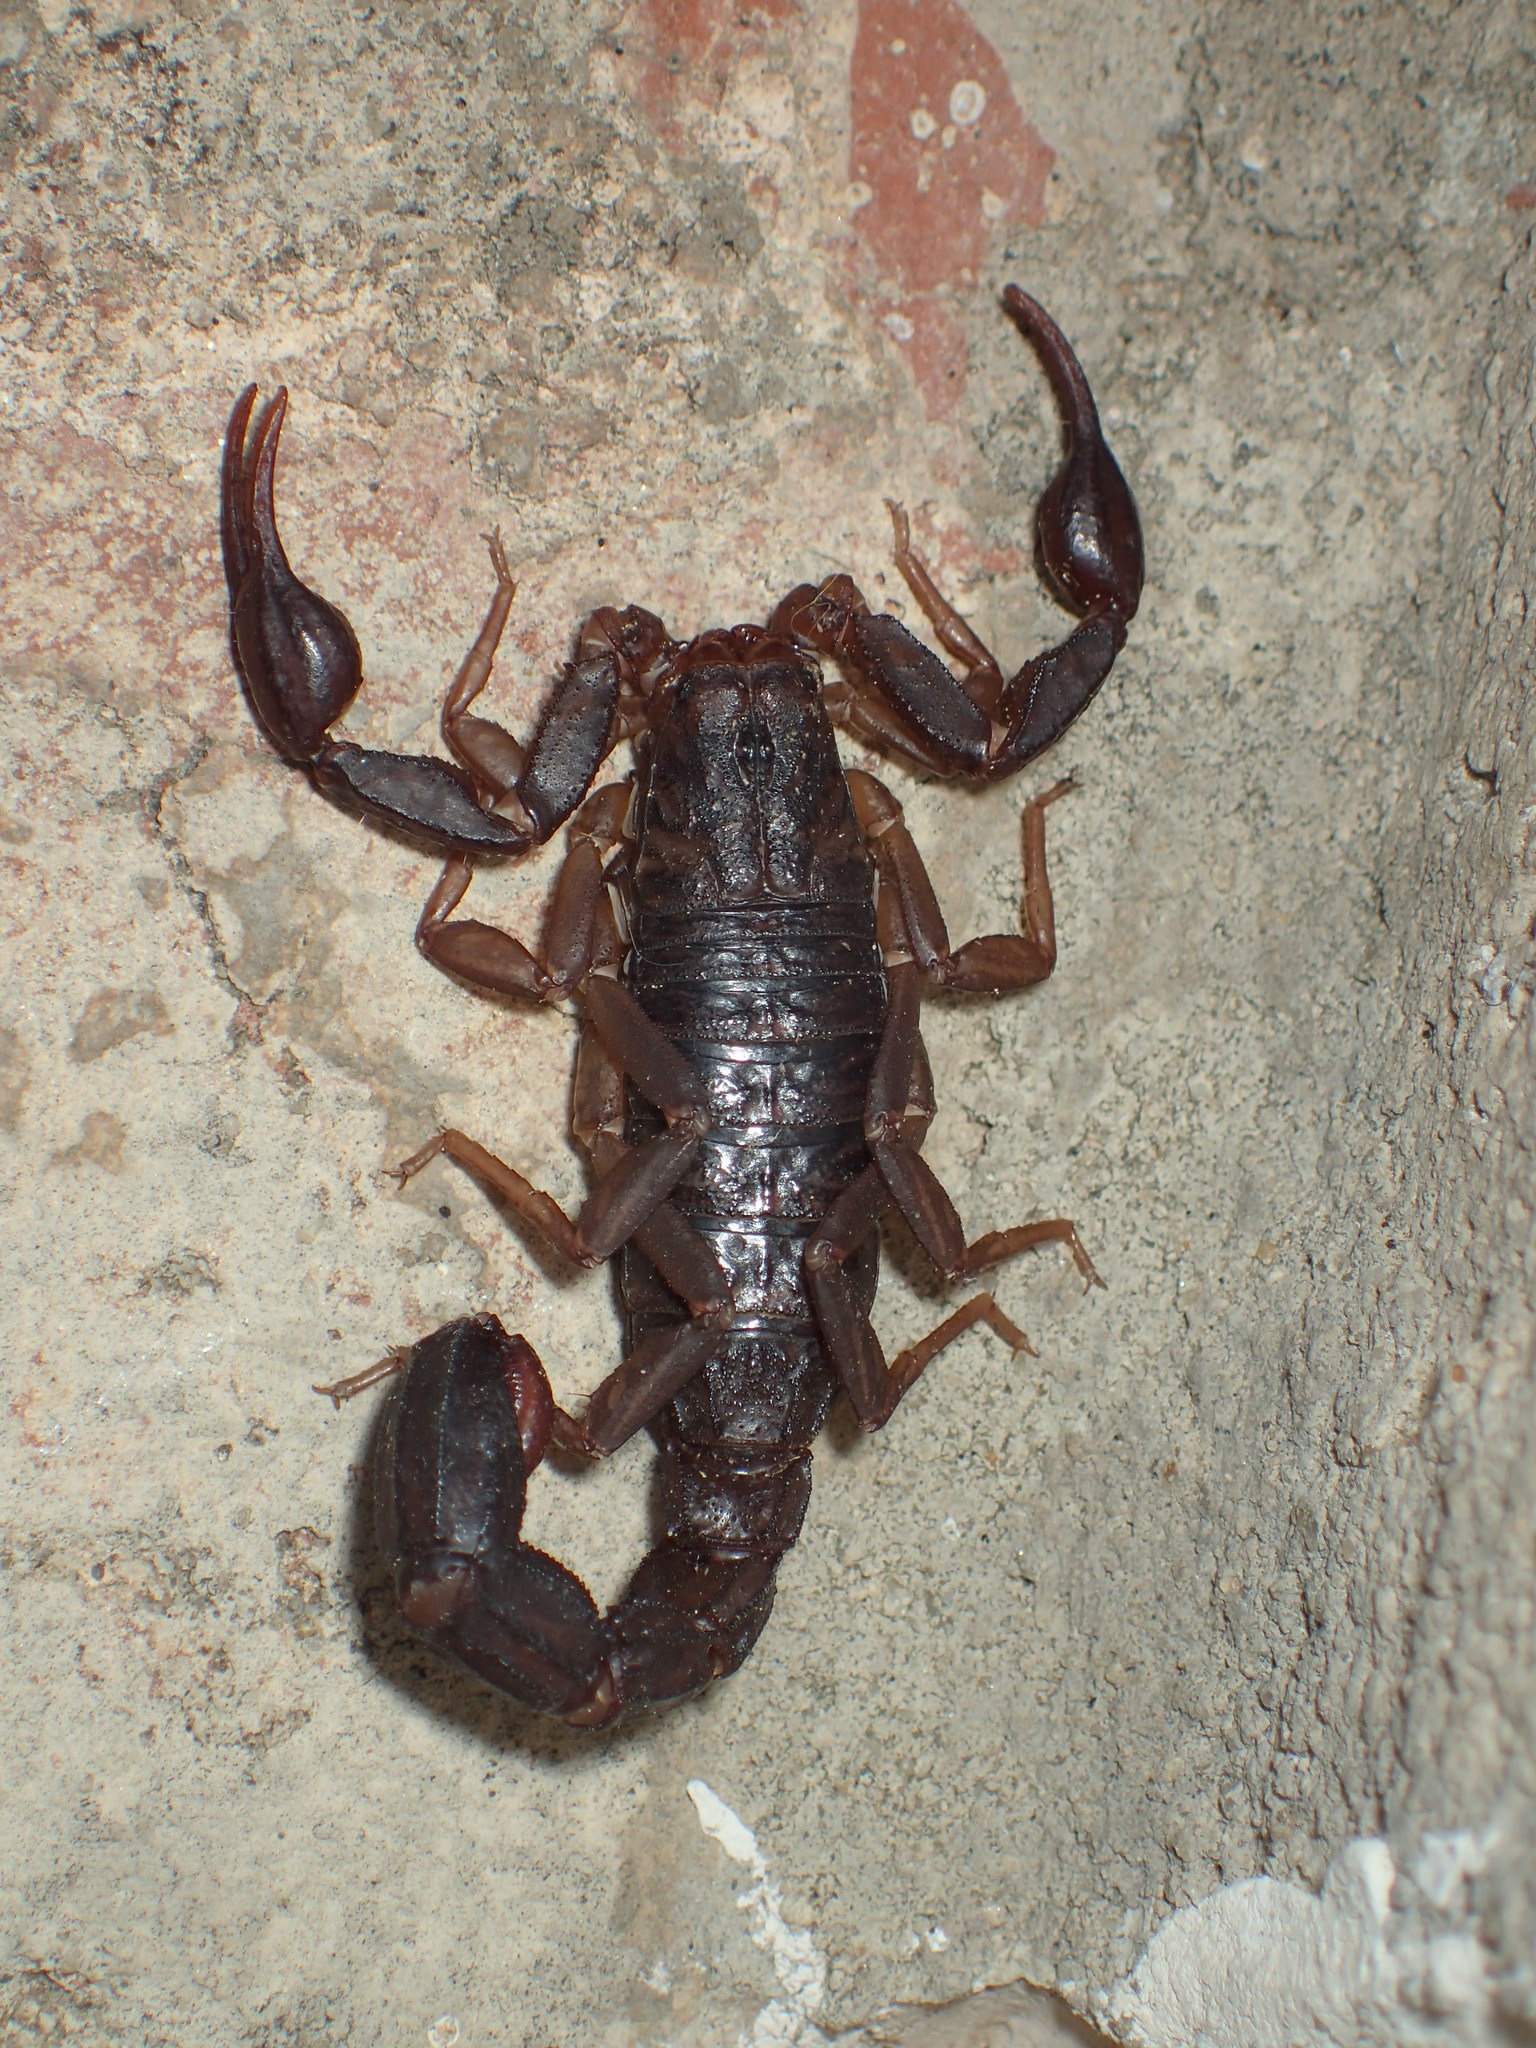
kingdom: Animalia
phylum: Arthropoda
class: Arachnida
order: Scorpiones
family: Vaejovidae
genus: Vaejovis
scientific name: Vaejovis carolinianus
